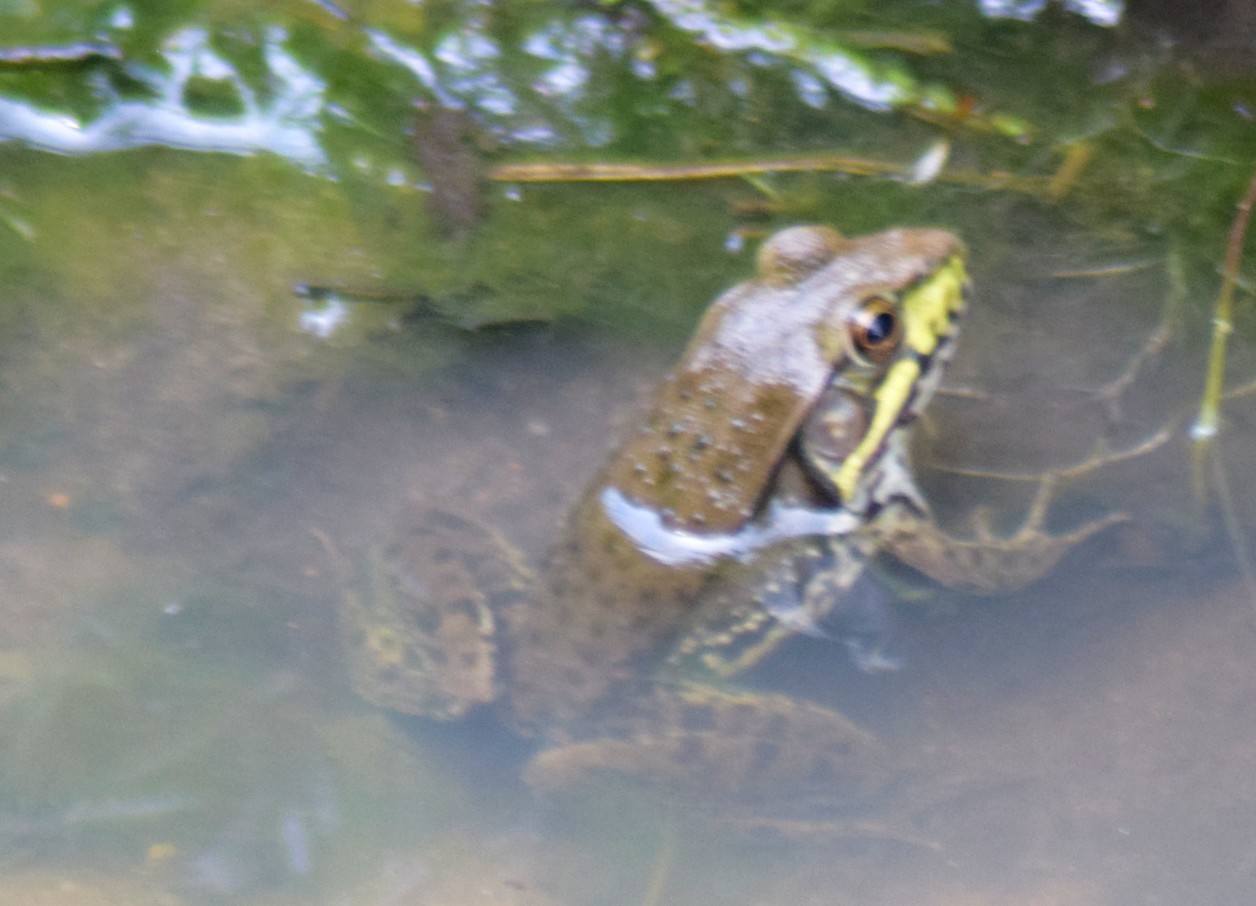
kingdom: Animalia
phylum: Chordata
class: Amphibia
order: Anura
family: Ranidae
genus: Lithobates
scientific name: Lithobates clamitans
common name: Green frog
